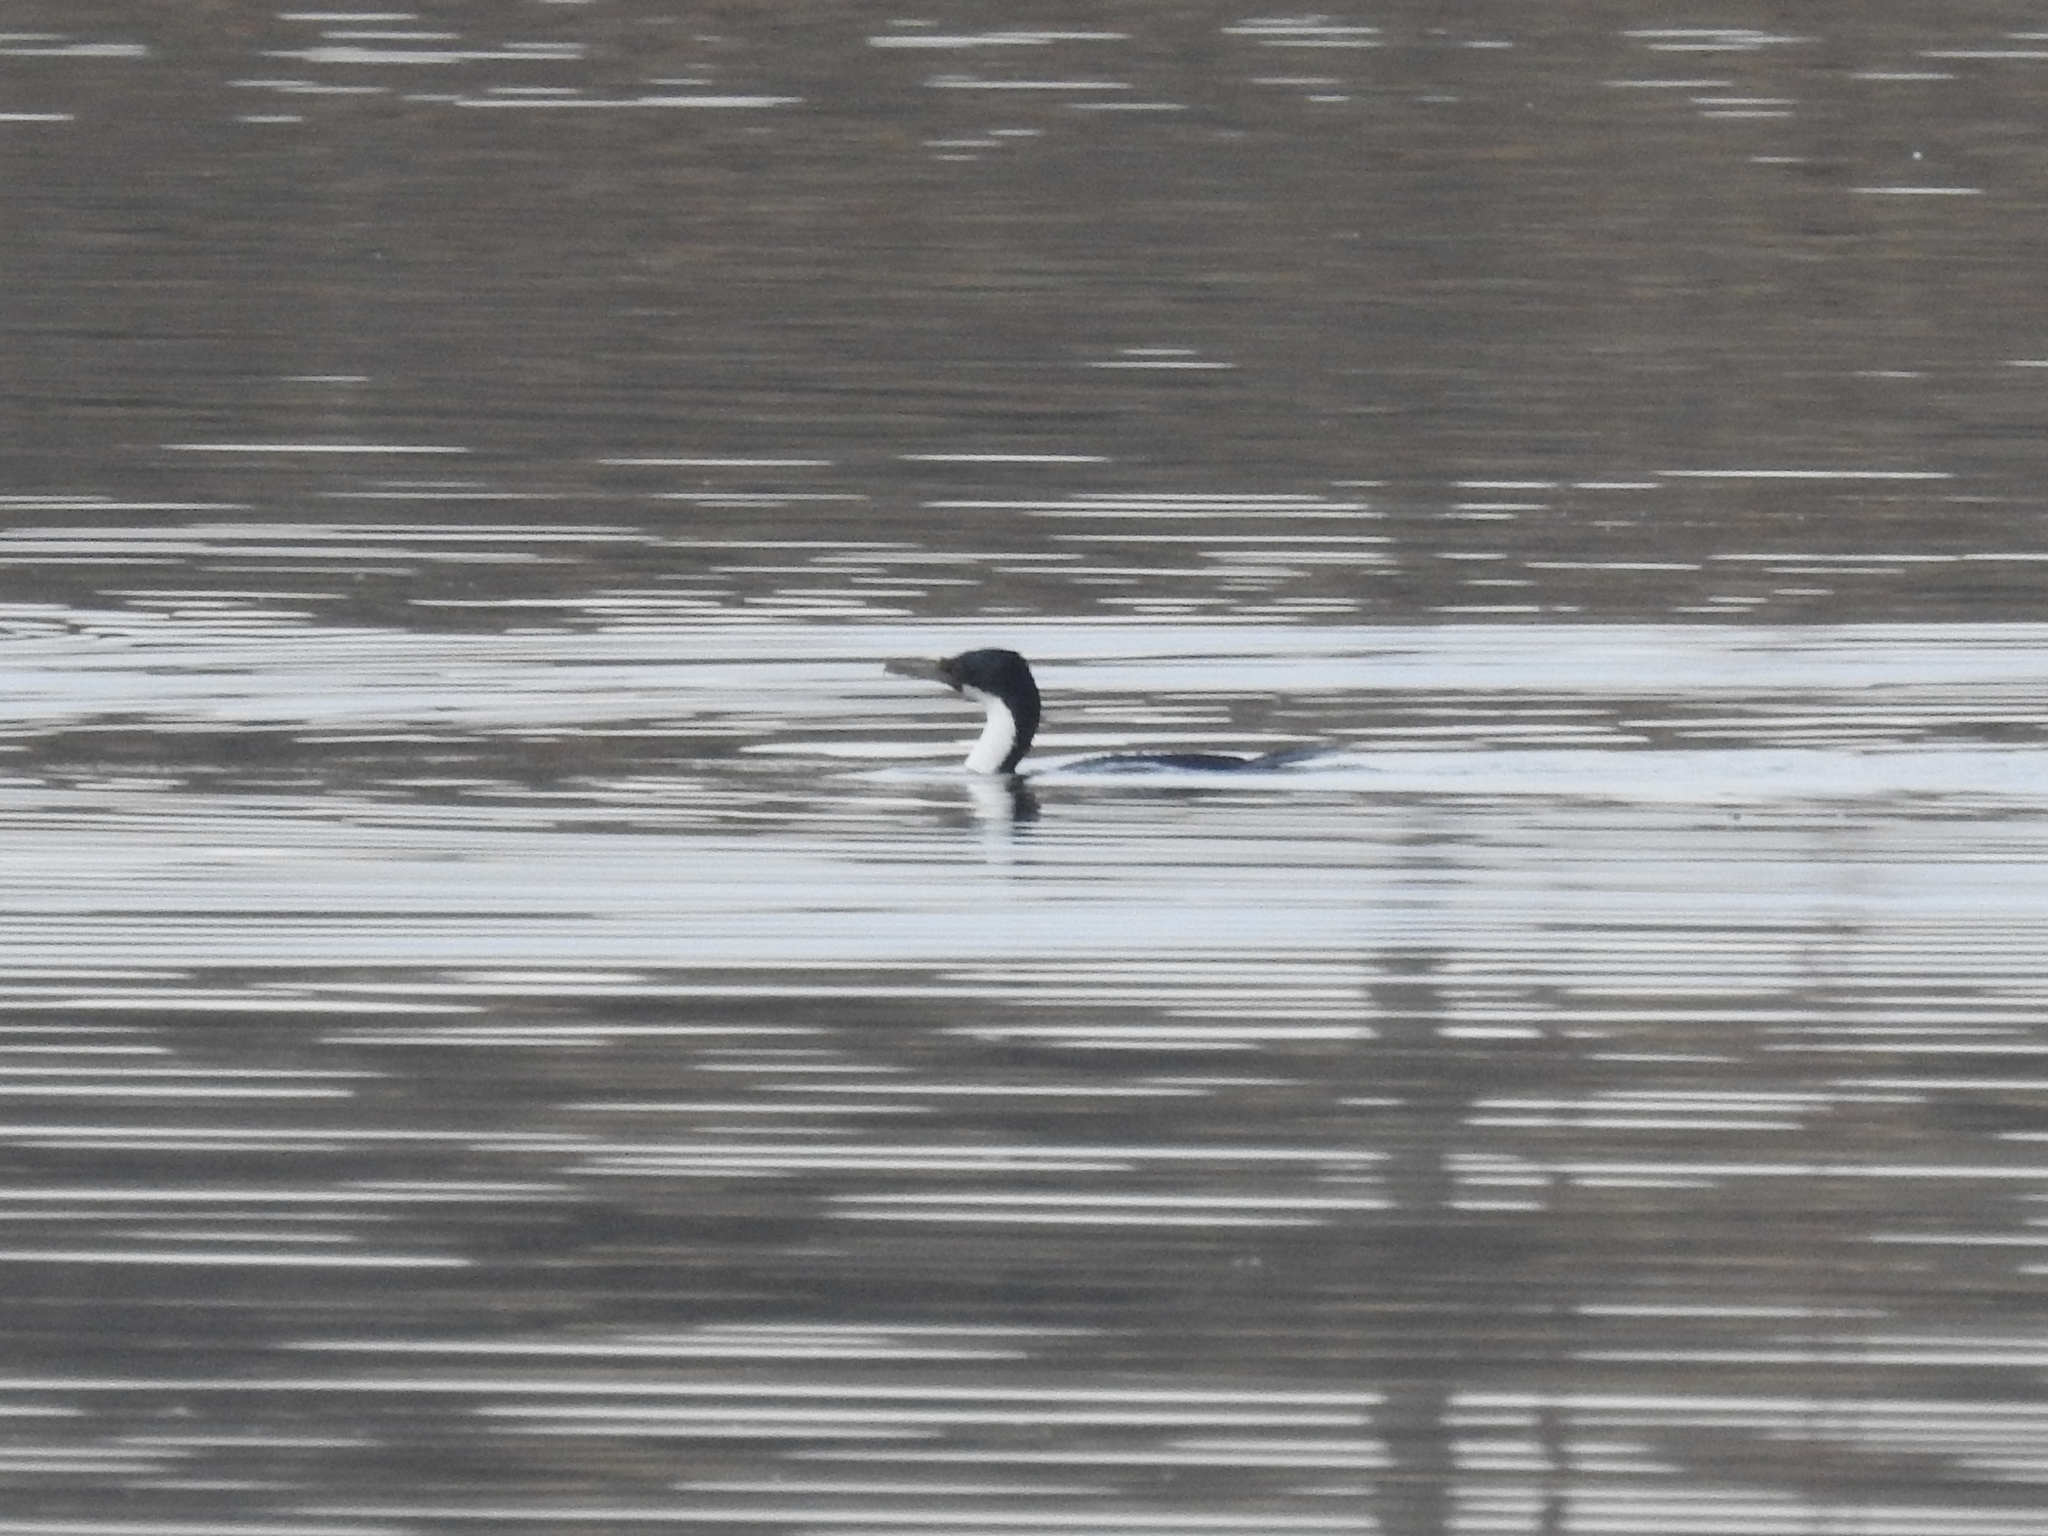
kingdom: Animalia
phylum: Chordata
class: Aves
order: Suliformes
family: Phalacrocoracidae
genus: Leucocarbo
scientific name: Leucocarbo atriceps
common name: Imperial shag
